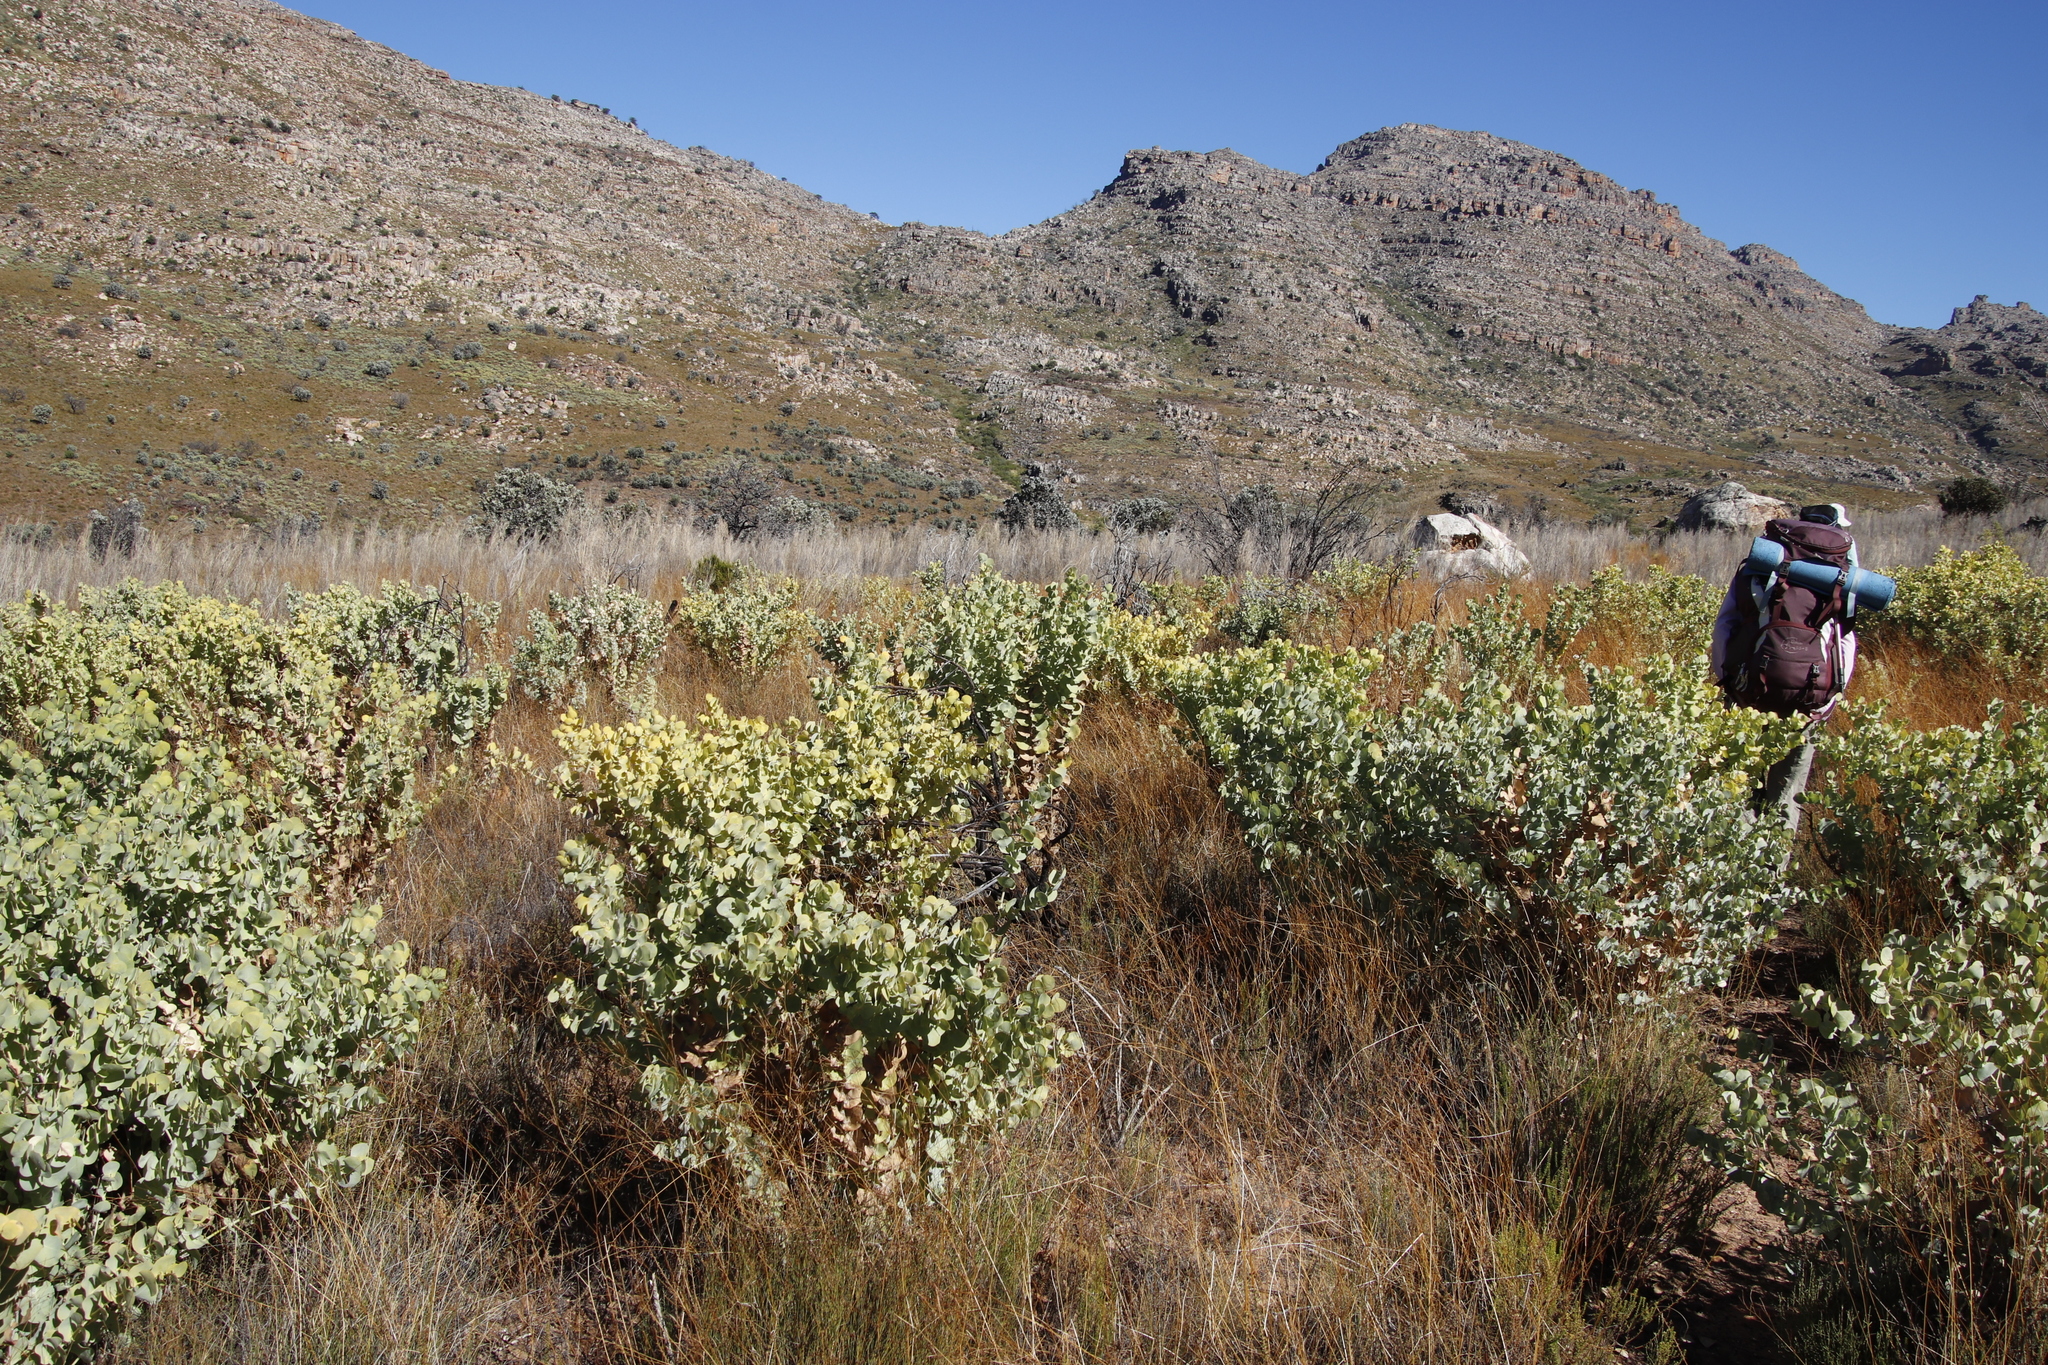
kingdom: Plantae
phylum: Tracheophyta
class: Magnoliopsida
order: Fabales
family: Fabaceae
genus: Rafnia
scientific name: Rafnia amplexicaulis
